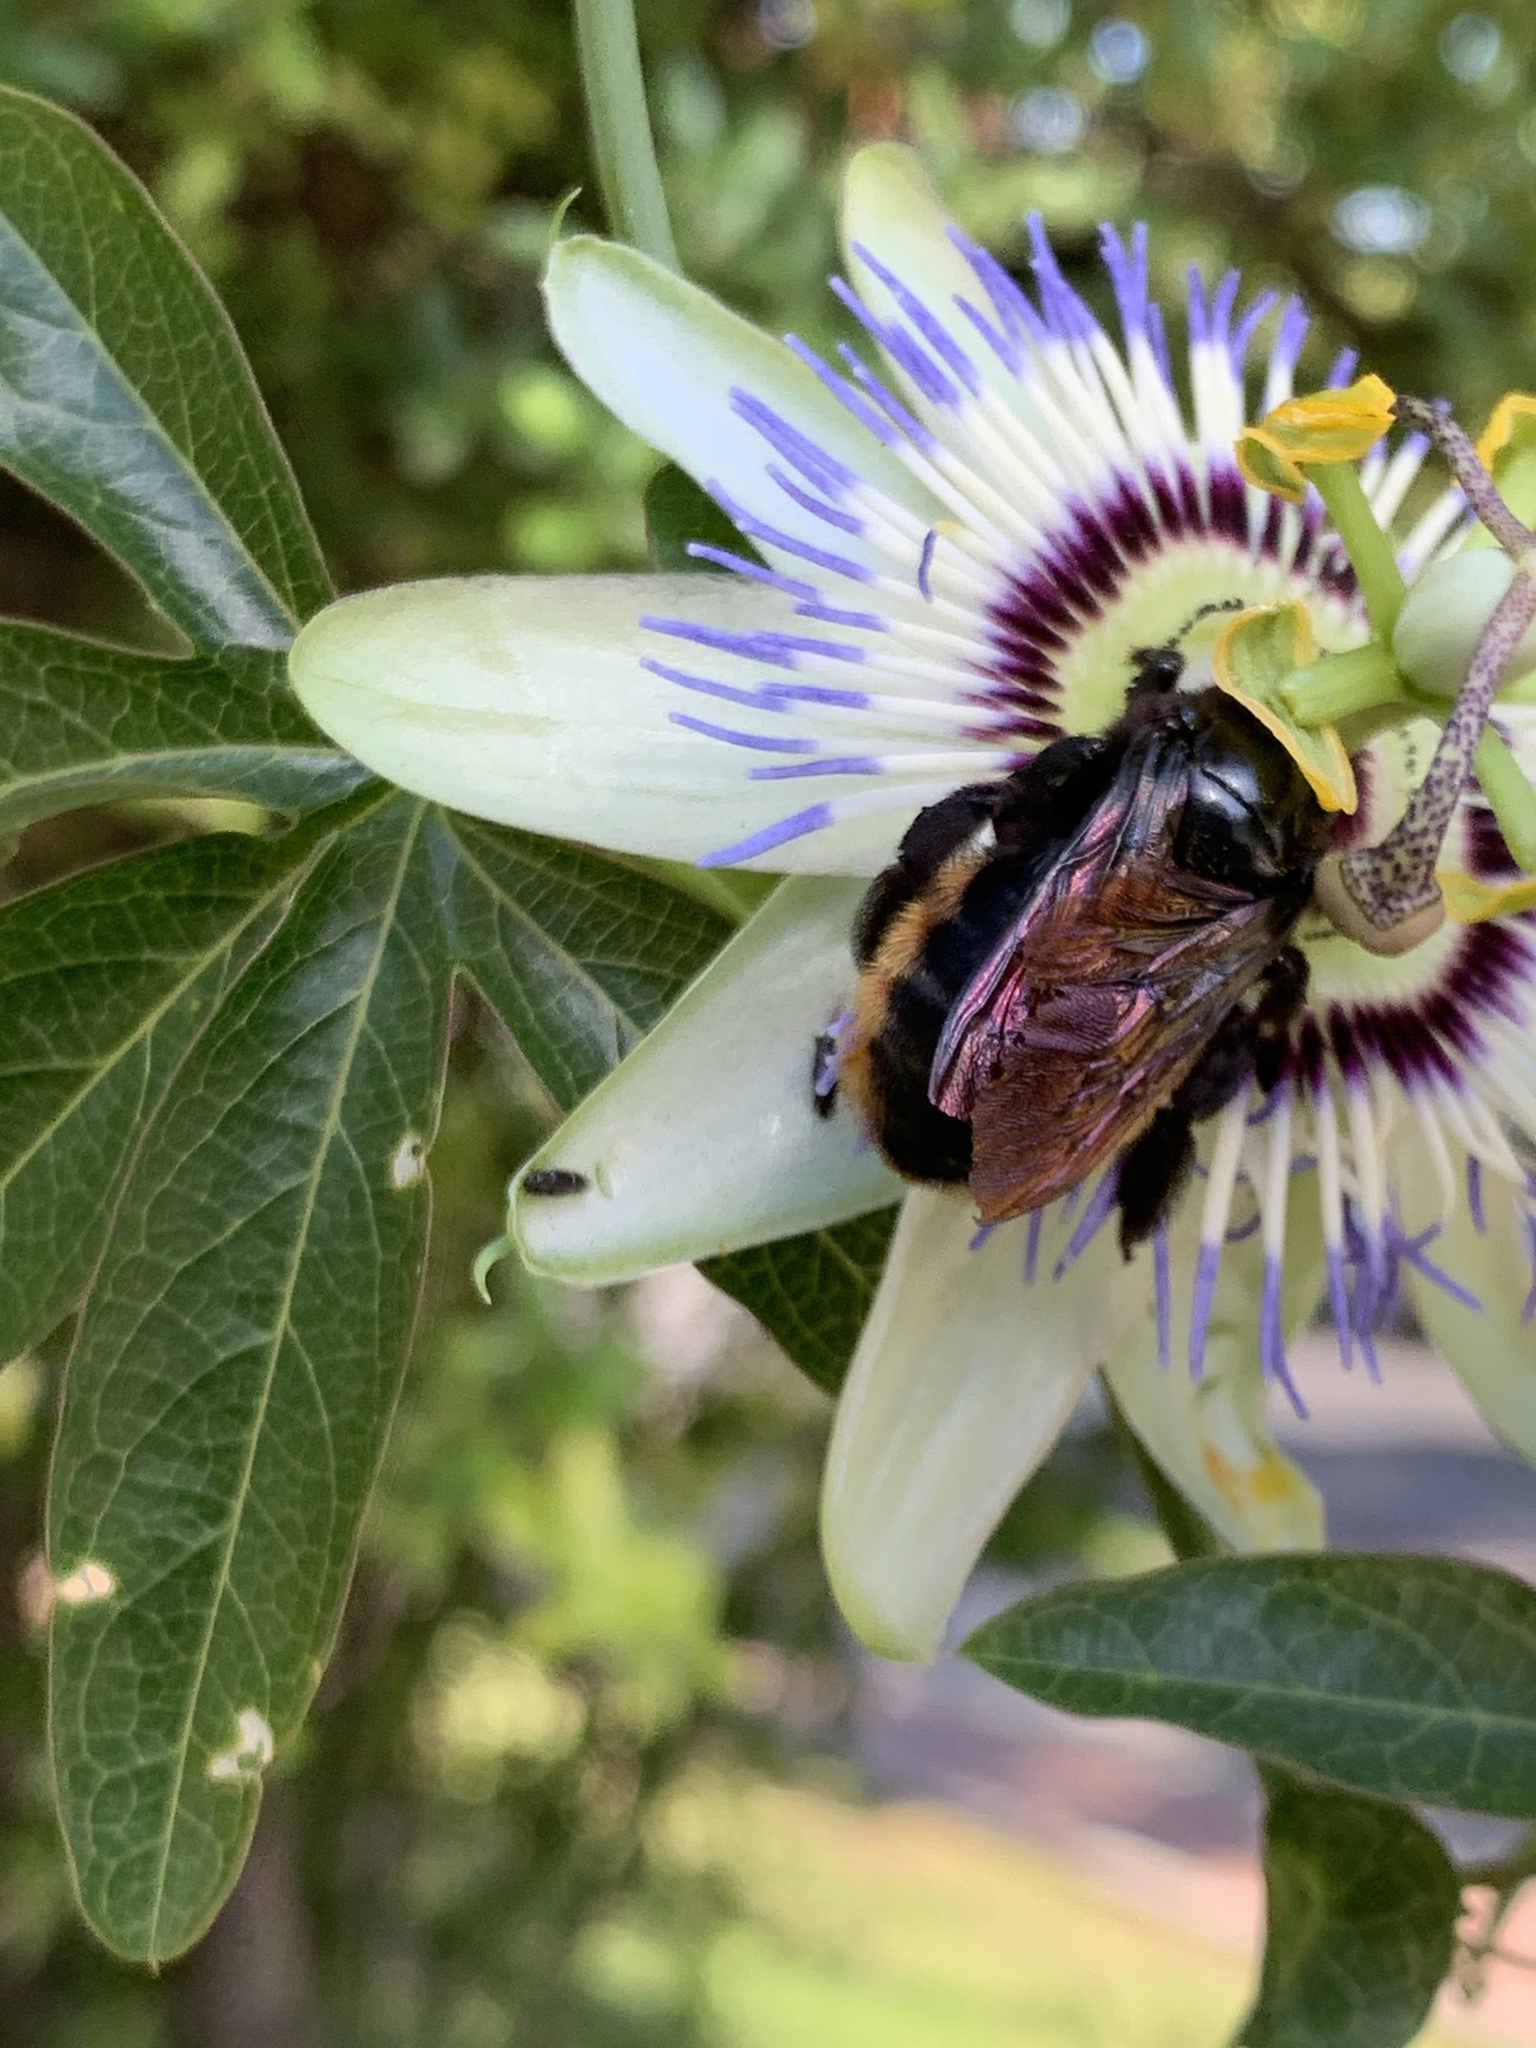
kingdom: Animalia
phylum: Arthropoda
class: Insecta
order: Hymenoptera
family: Apidae
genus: Xylocopa
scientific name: Xylocopa augusti
